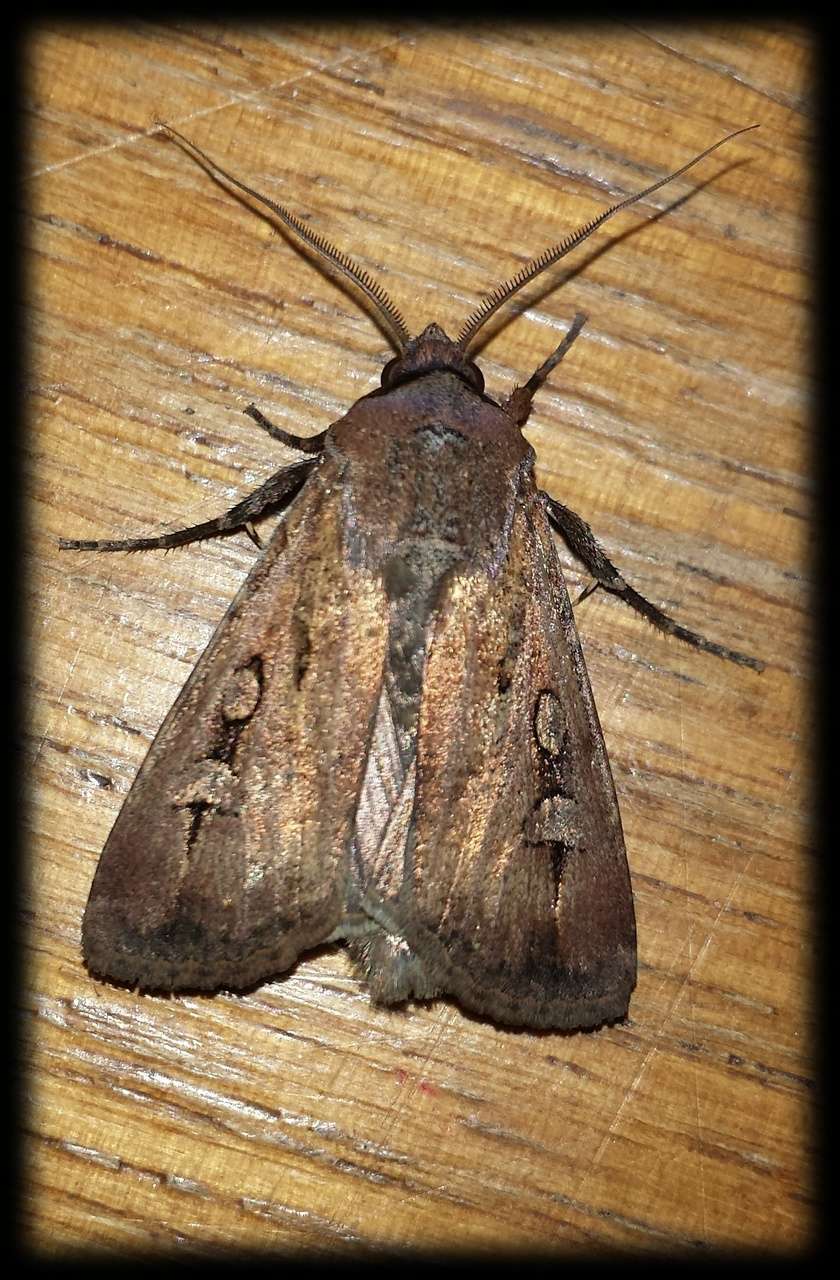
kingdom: Animalia
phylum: Arthropoda
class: Insecta
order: Lepidoptera
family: Noctuidae
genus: Agrotis
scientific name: Agrotis infusa
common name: Bogong moth
